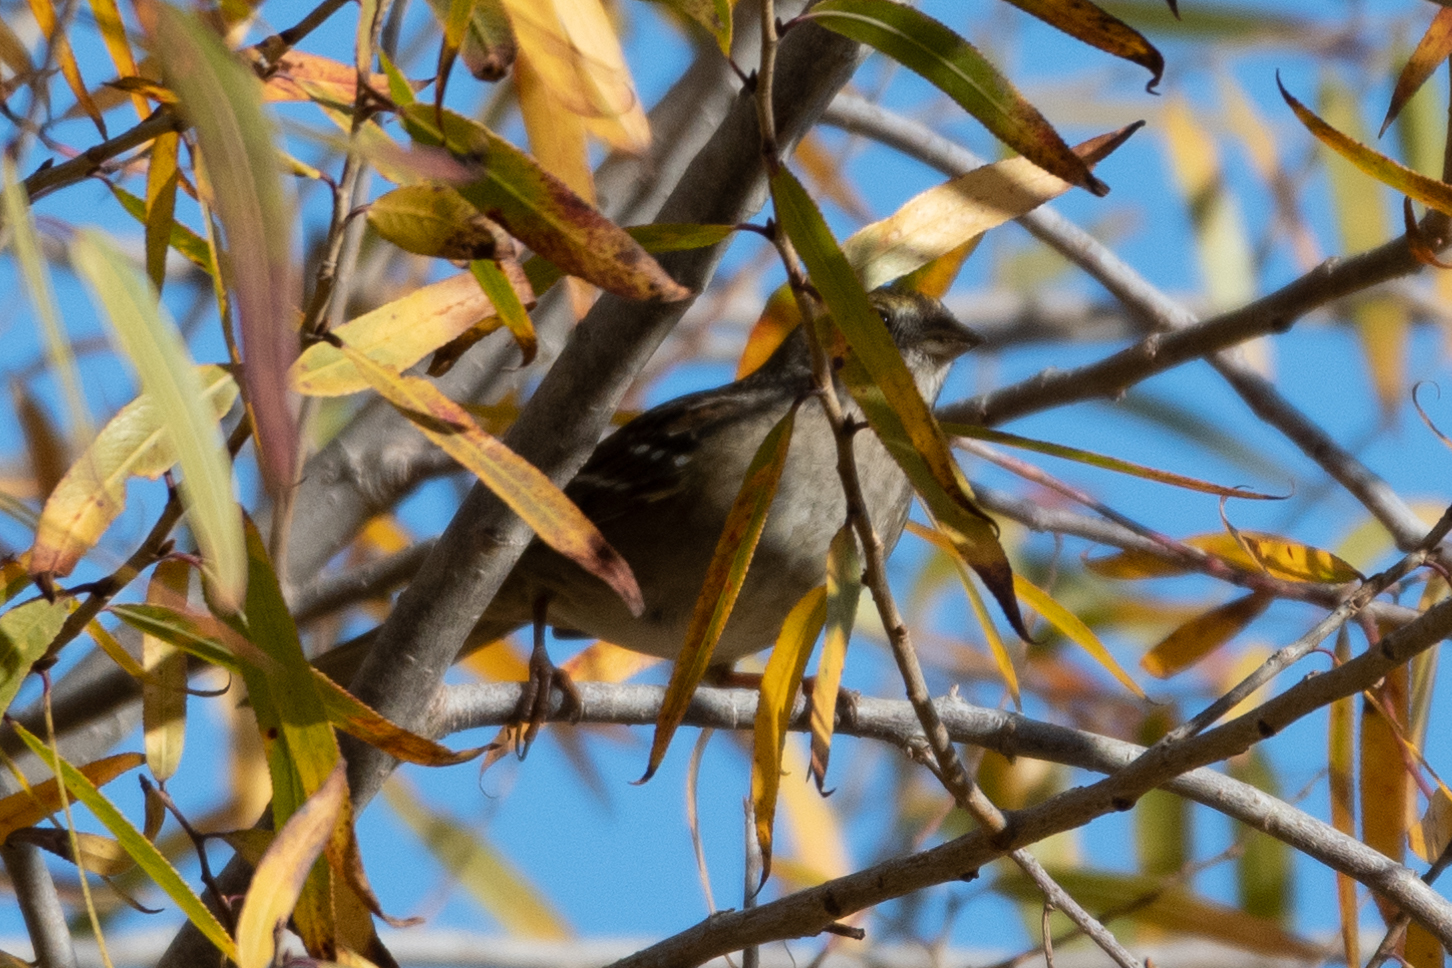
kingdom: Animalia
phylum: Chordata
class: Aves
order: Passeriformes
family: Passerellidae
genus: Zonotrichia
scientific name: Zonotrichia atricapilla
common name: Golden-crowned sparrow
